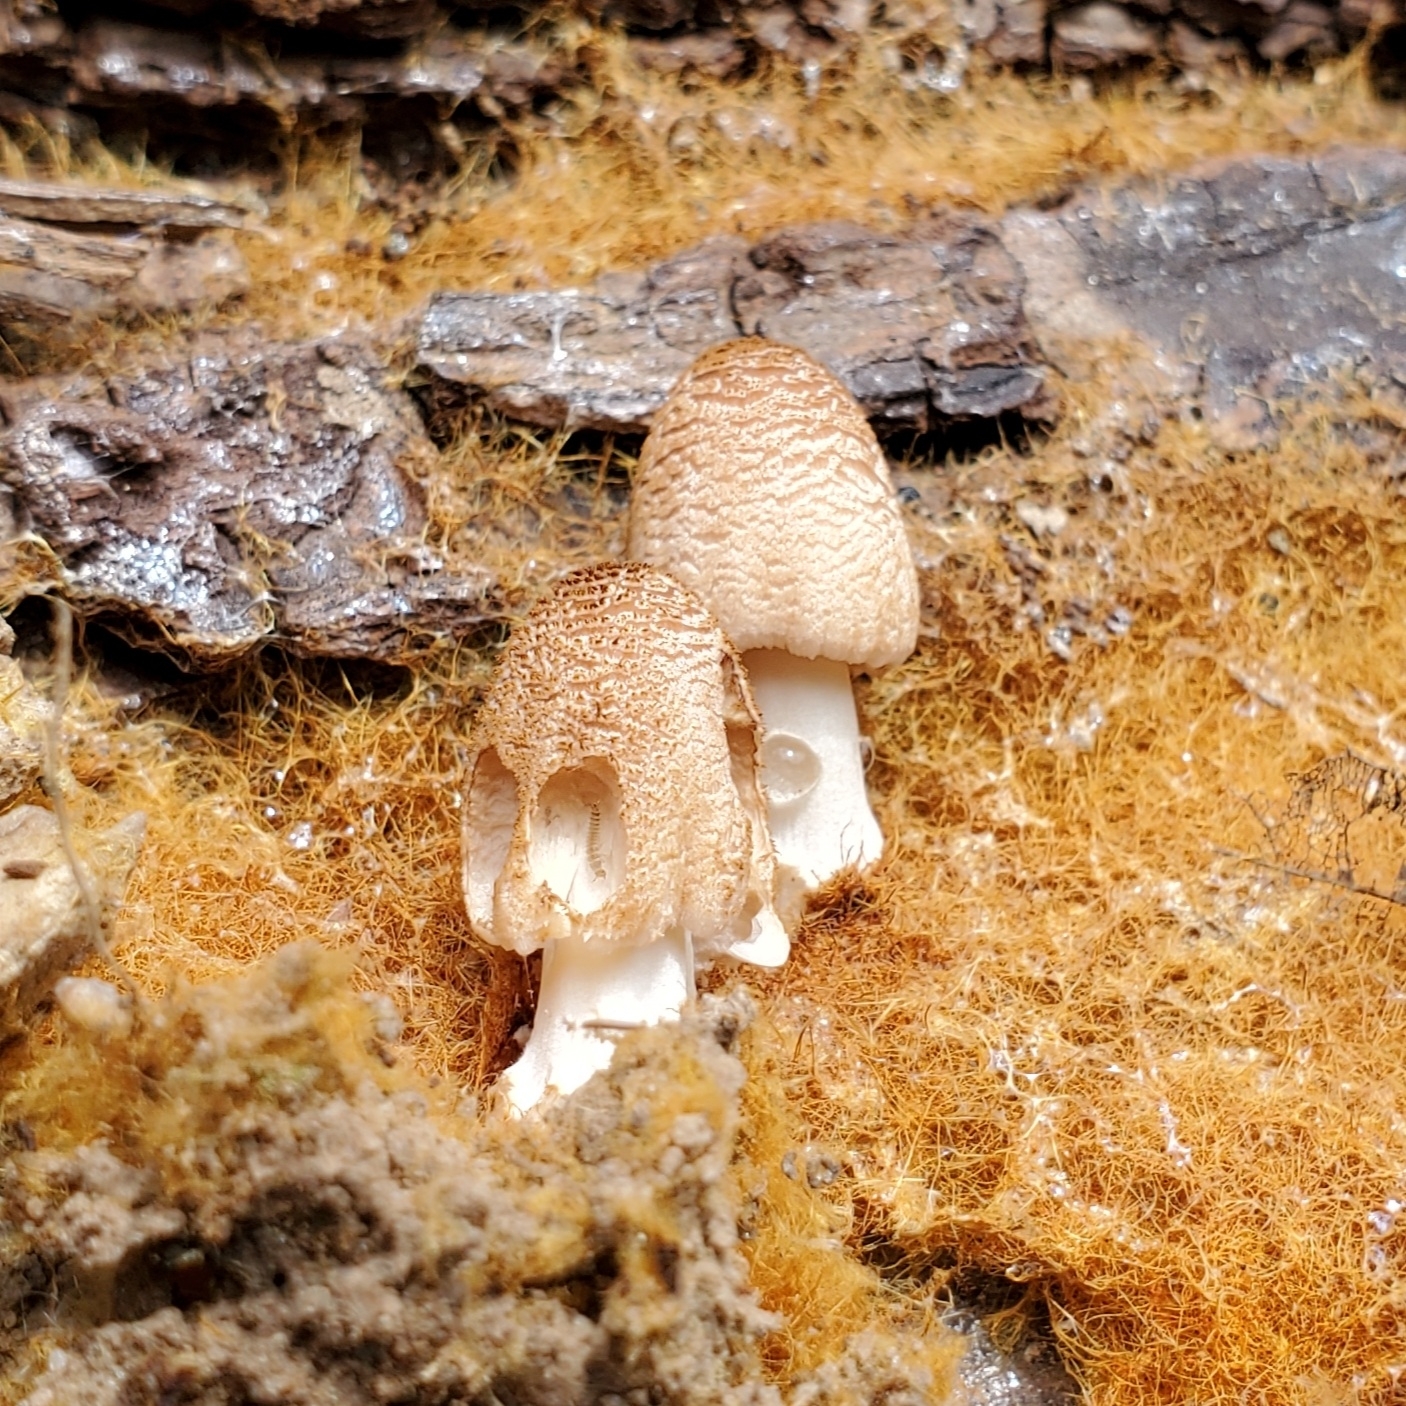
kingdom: Fungi
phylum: Basidiomycota
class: Agaricomycetes
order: Agaricales
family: Psathyrellaceae
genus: Coprinellus
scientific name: Coprinellus domesticus
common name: Firerug inkcap
